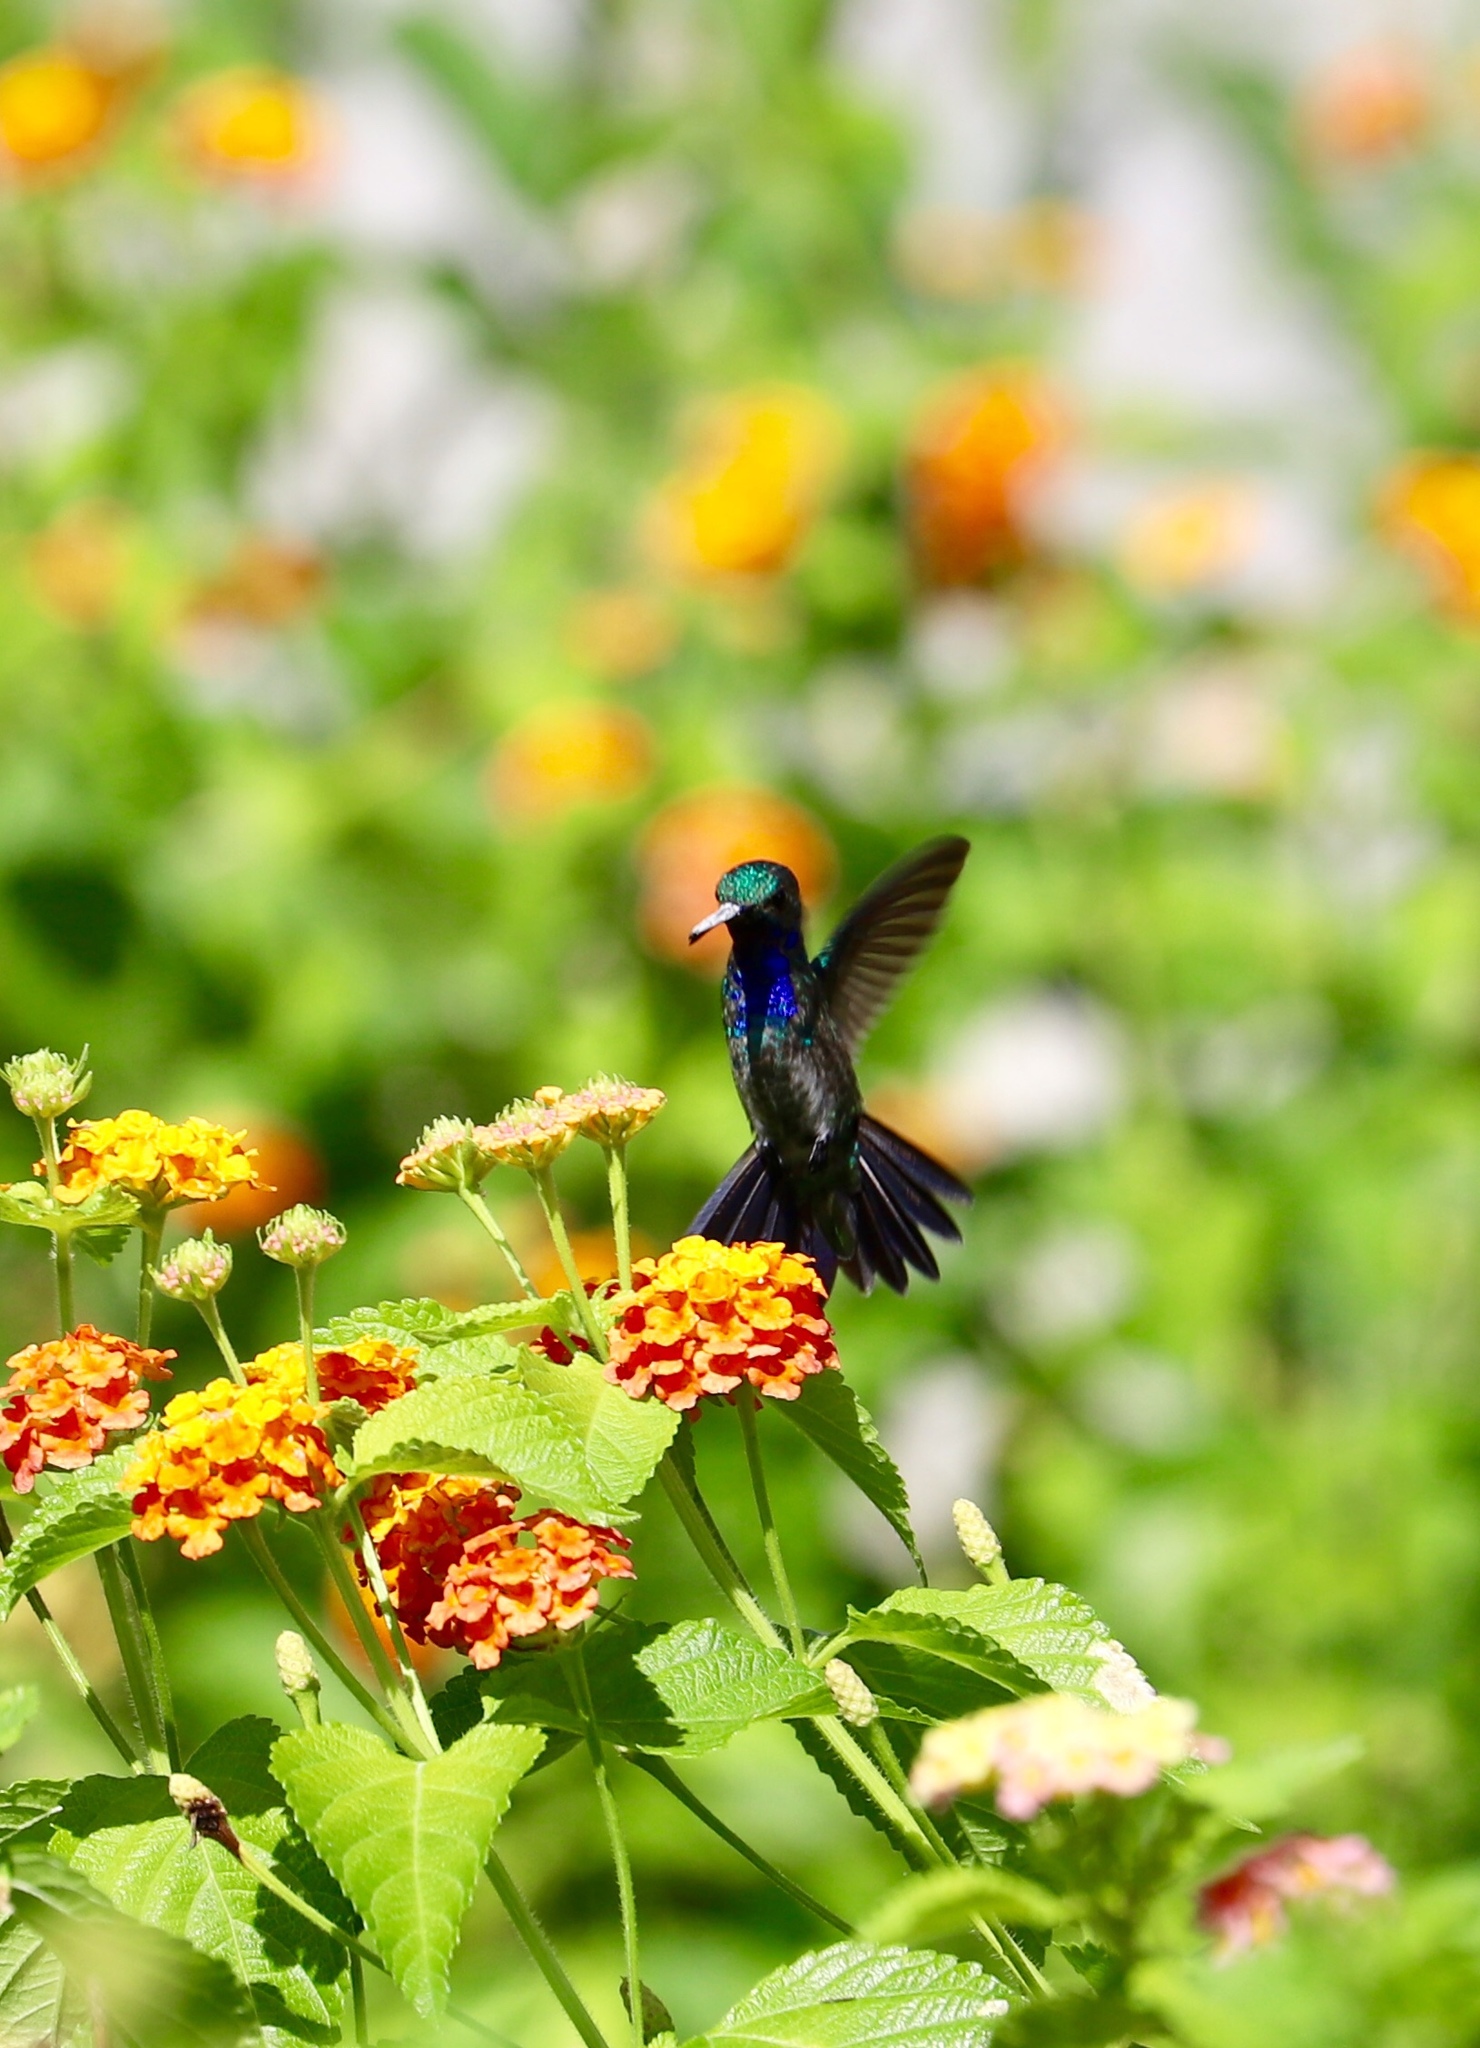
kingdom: Animalia
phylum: Chordata
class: Aves
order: Apodiformes
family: Trochilidae
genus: Chrysuronia
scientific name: Chrysuronia coeruleogularis
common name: Sapphire-throated hummingbird
